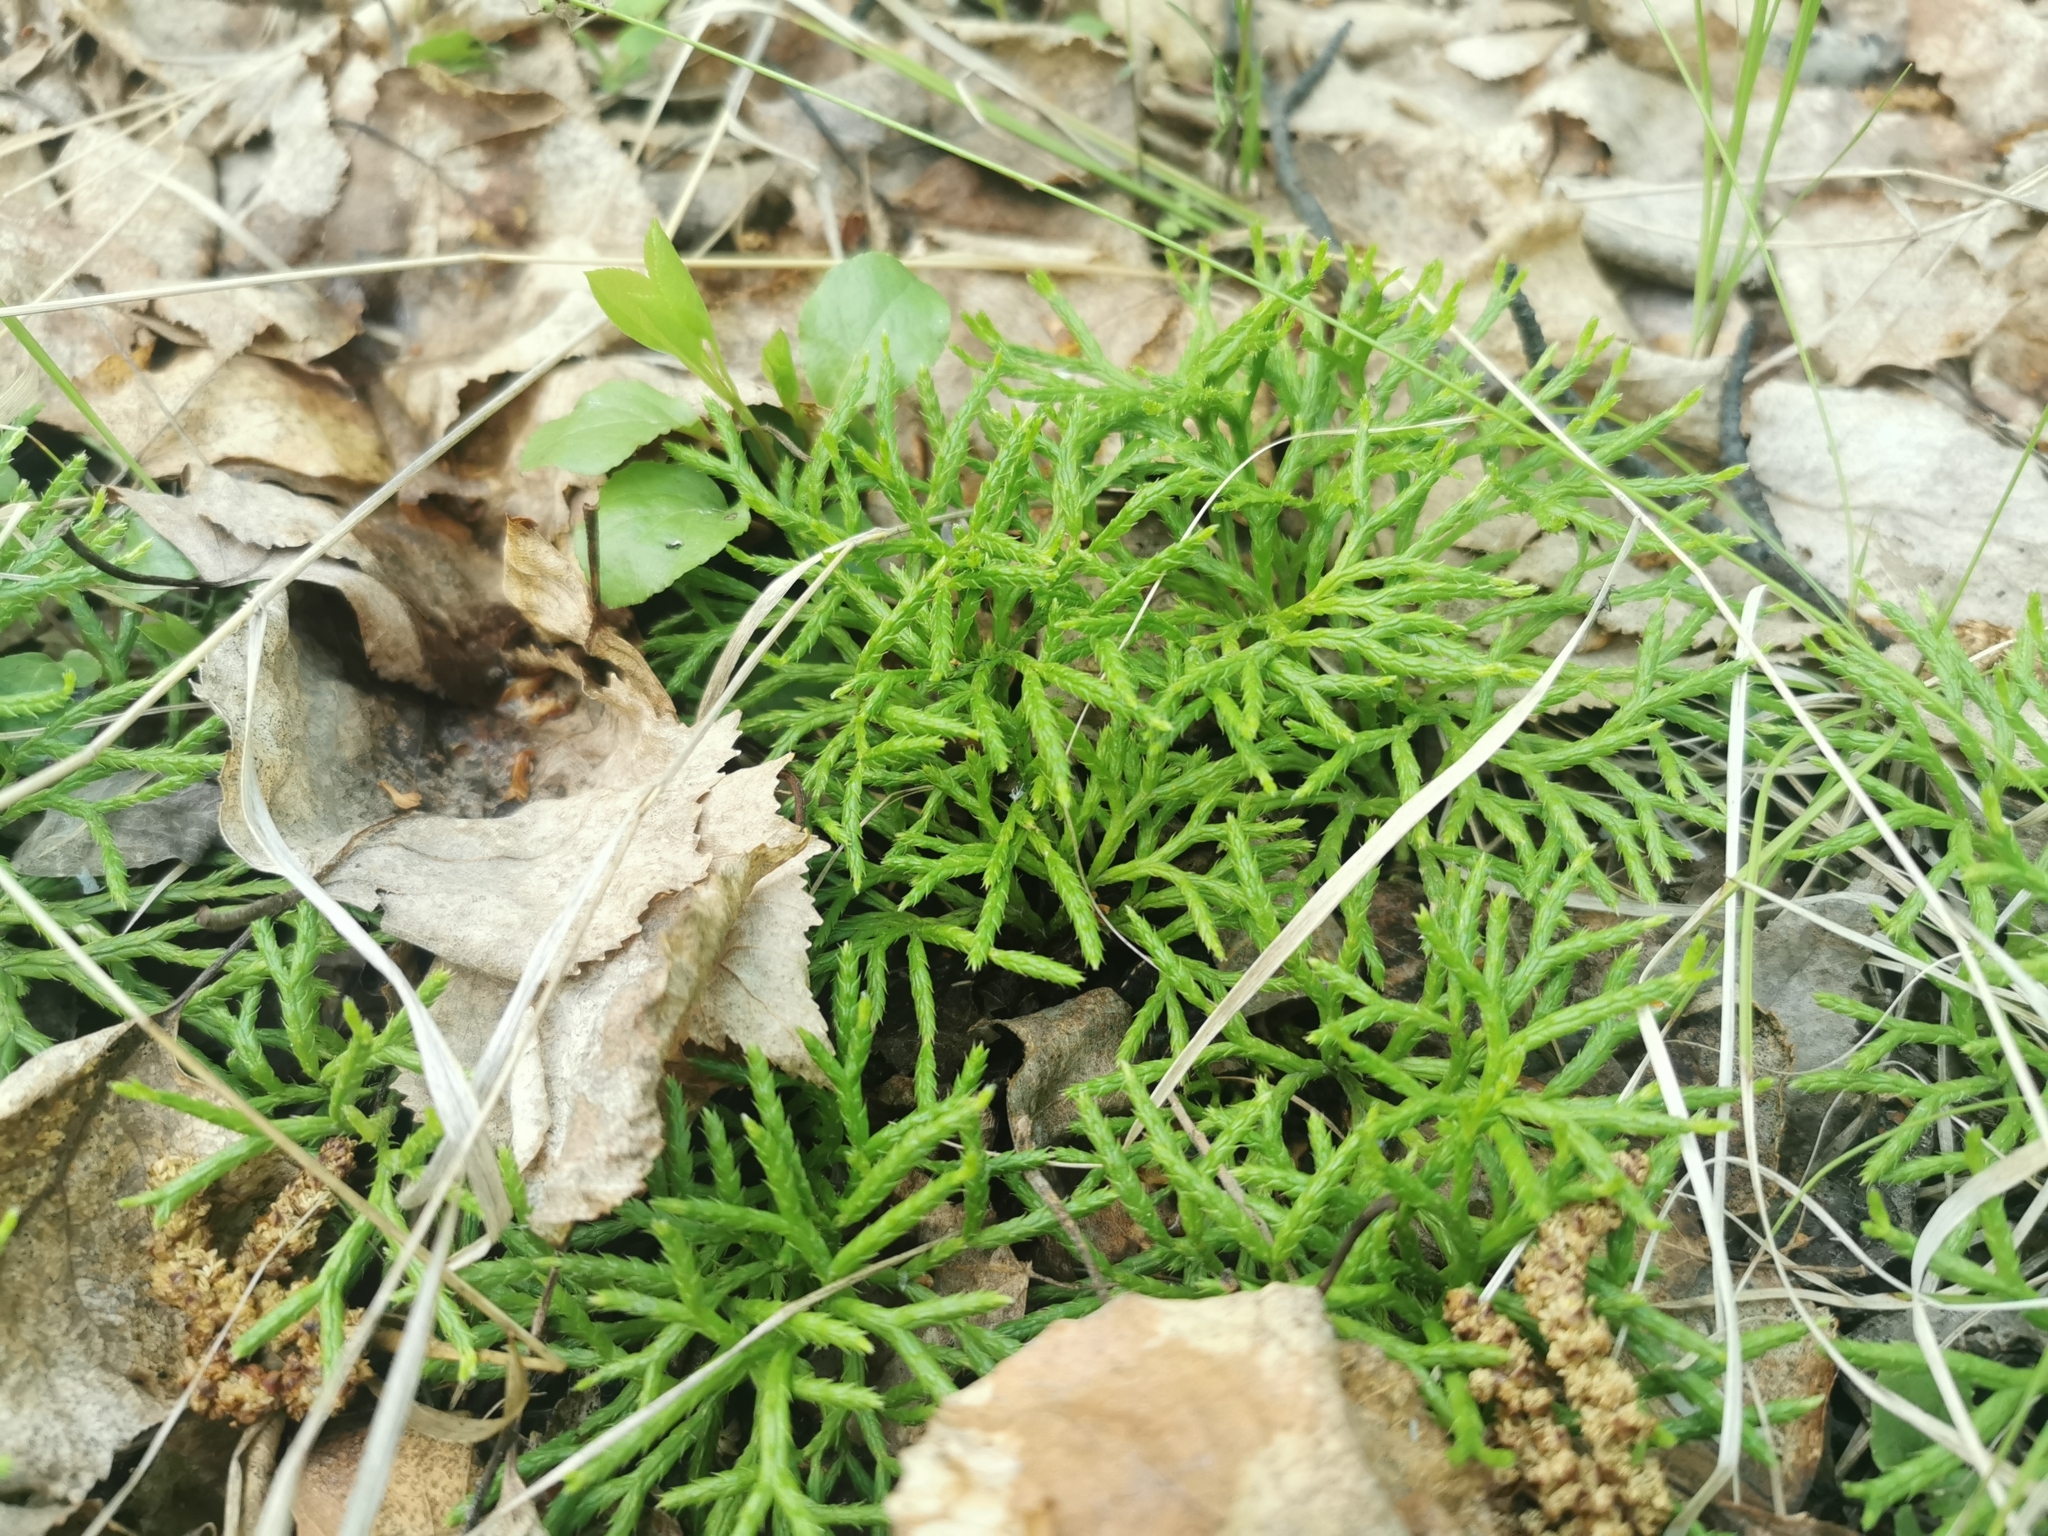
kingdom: Plantae
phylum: Tracheophyta
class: Lycopodiopsida
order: Lycopodiales
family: Lycopodiaceae
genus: Diphasiastrum
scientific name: Diphasiastrum complanatum
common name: Northern running-pine
